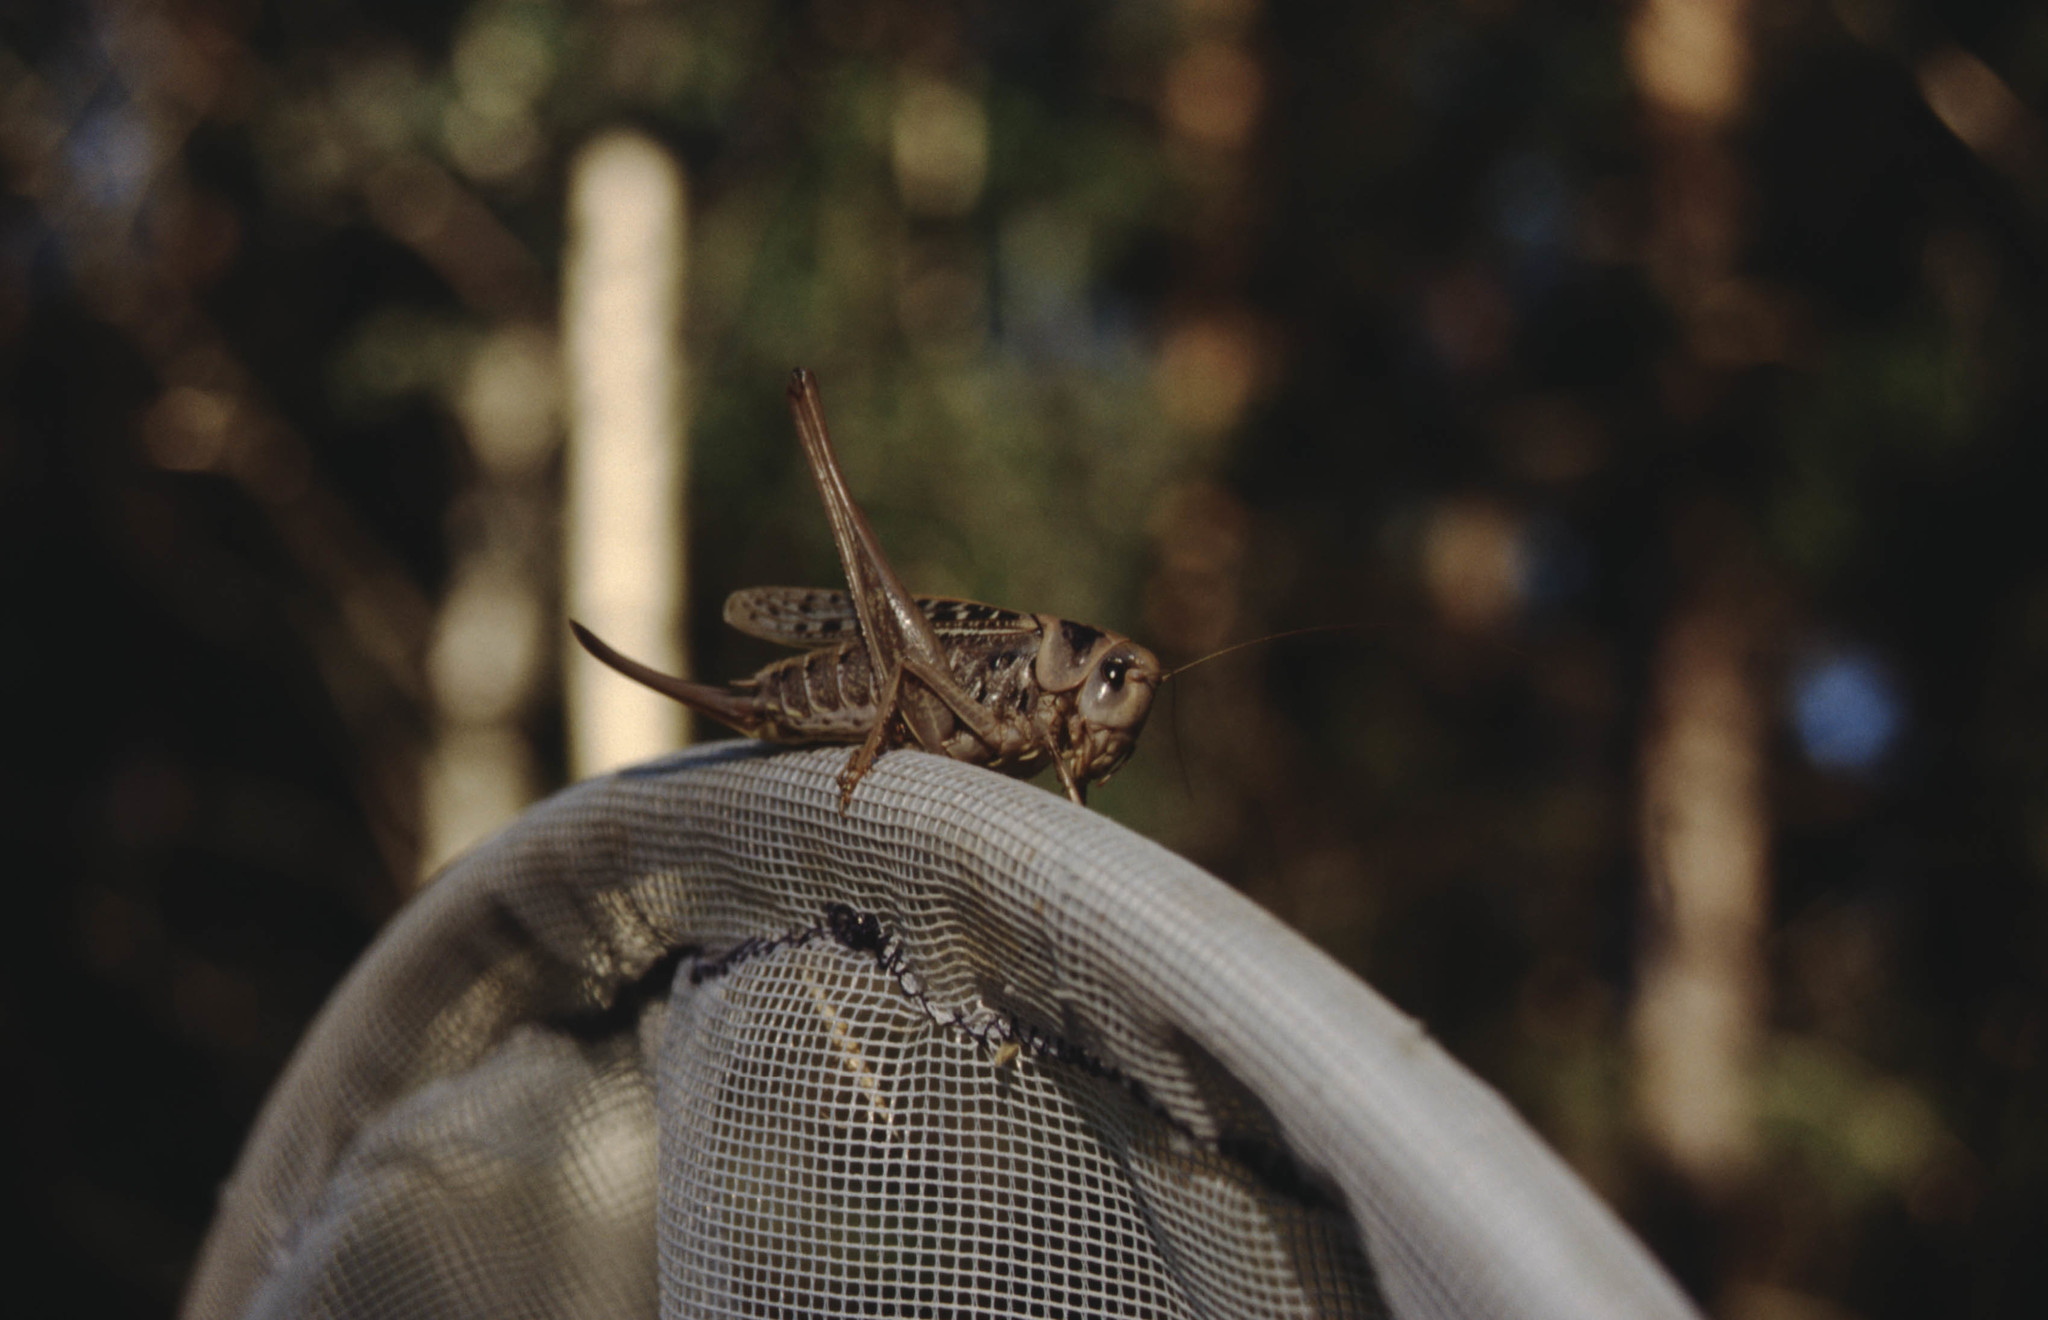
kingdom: Animalia
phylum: Arthropoda
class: Insecta
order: Orthoptera
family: Tettigoniidae
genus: Decticus
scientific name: Decticus verrucivorus
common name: Wart-biter
